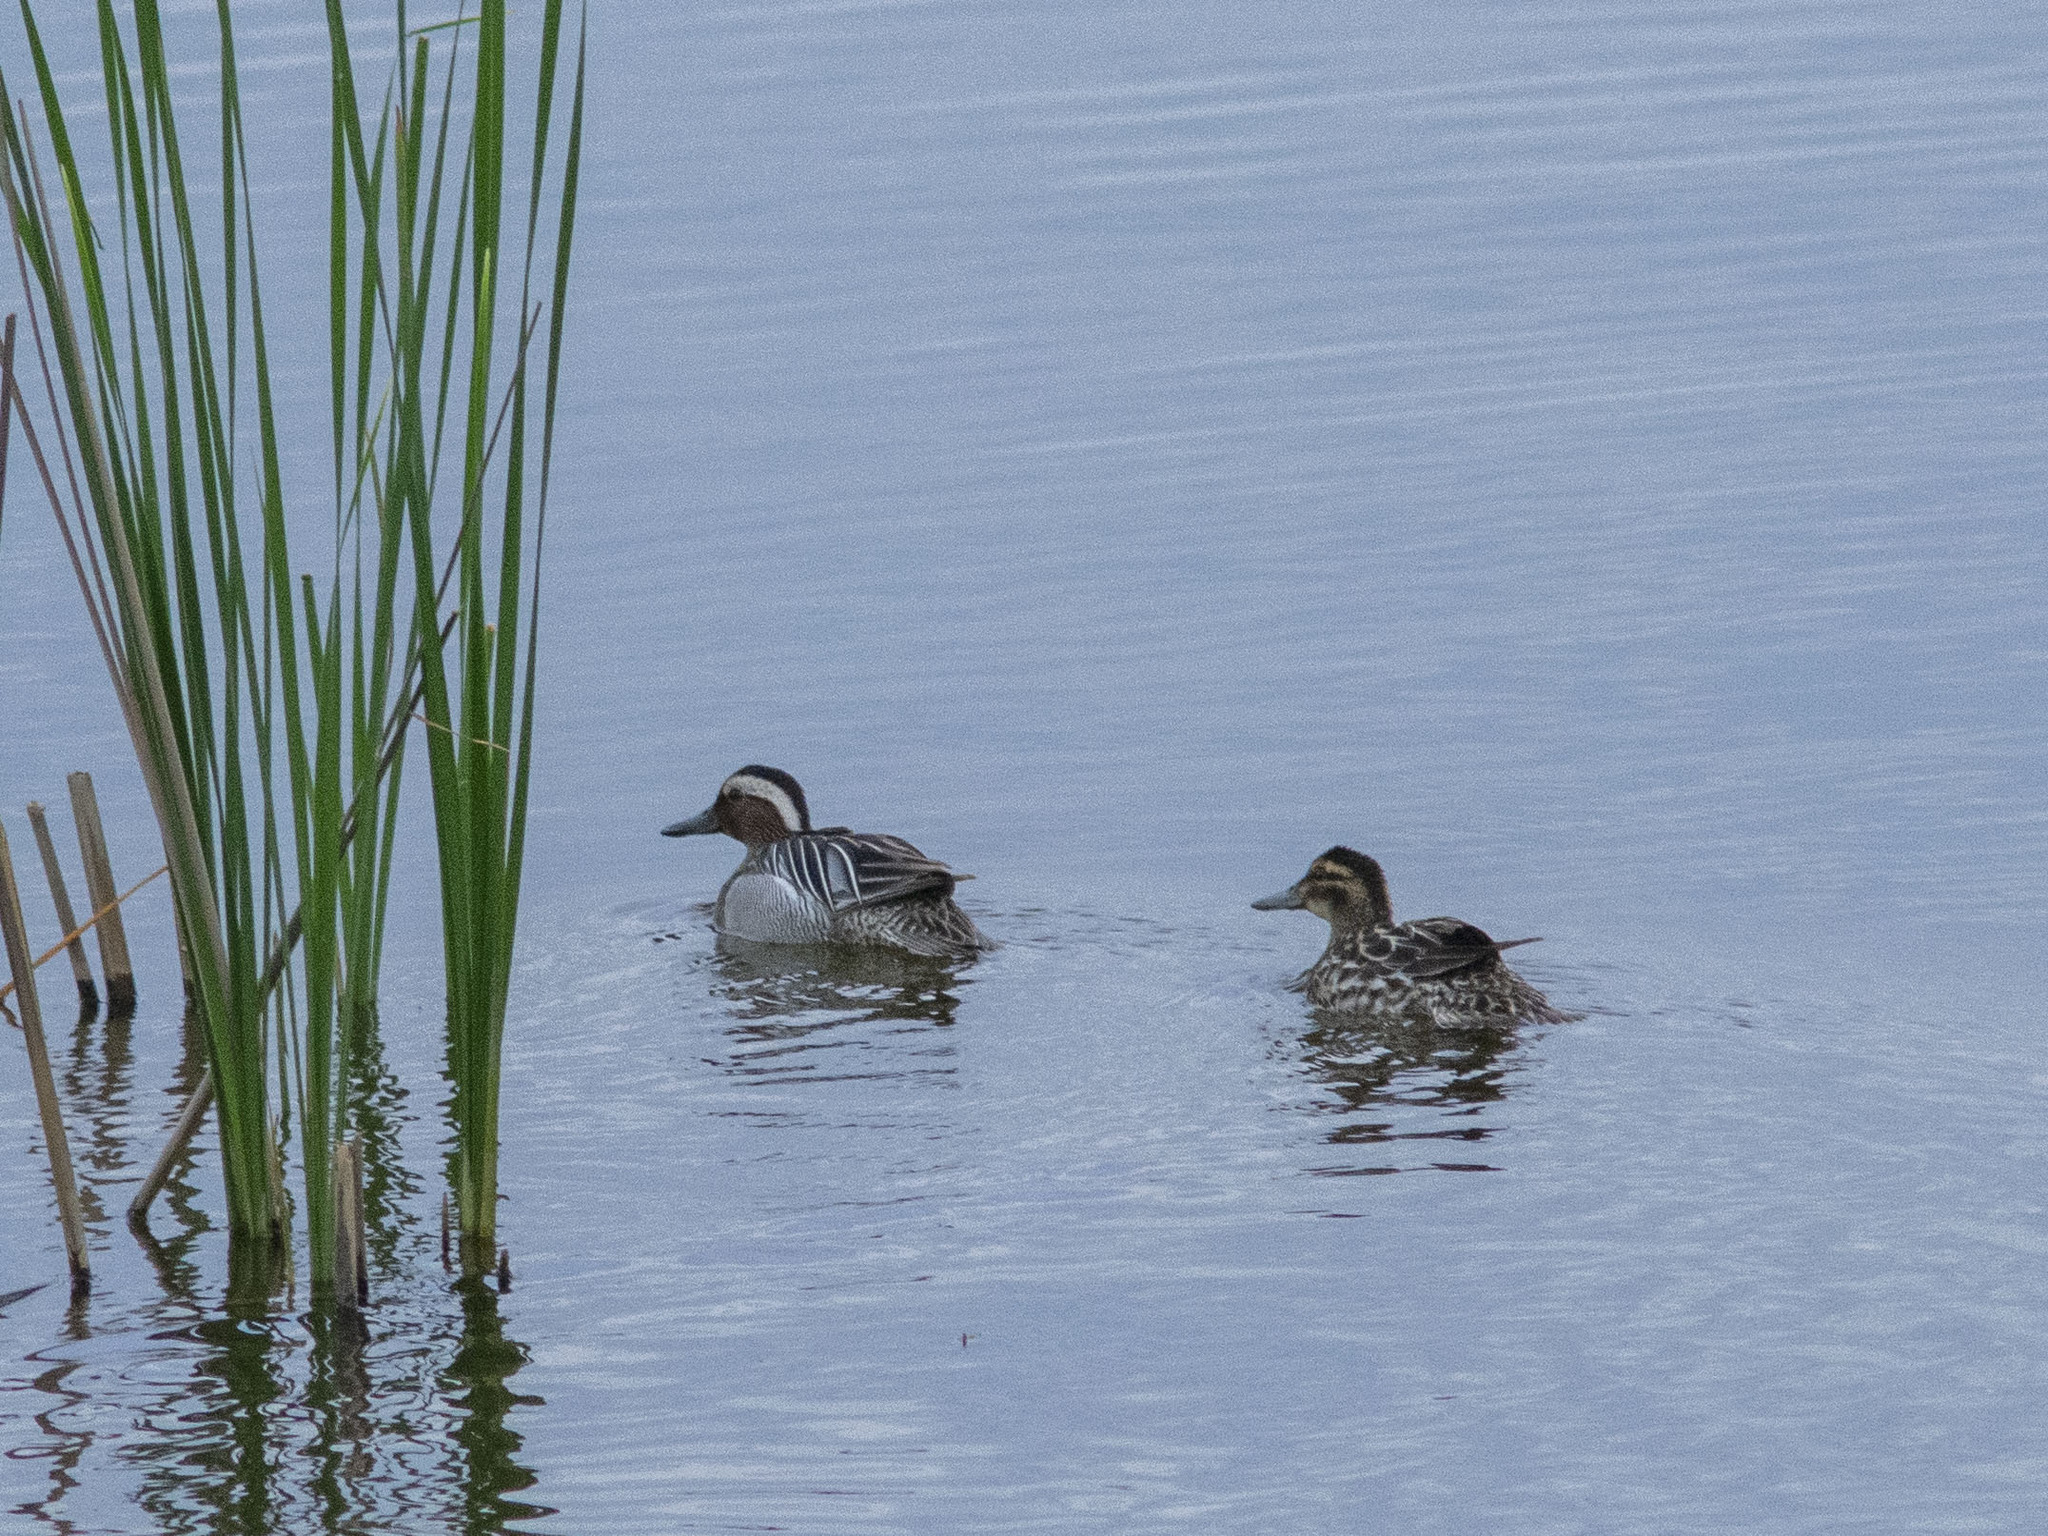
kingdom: Animalia
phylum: Chordata
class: Aves
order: Anseriformes
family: Anatidae
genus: Spatula
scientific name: Spatula querquedula
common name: Garganey
